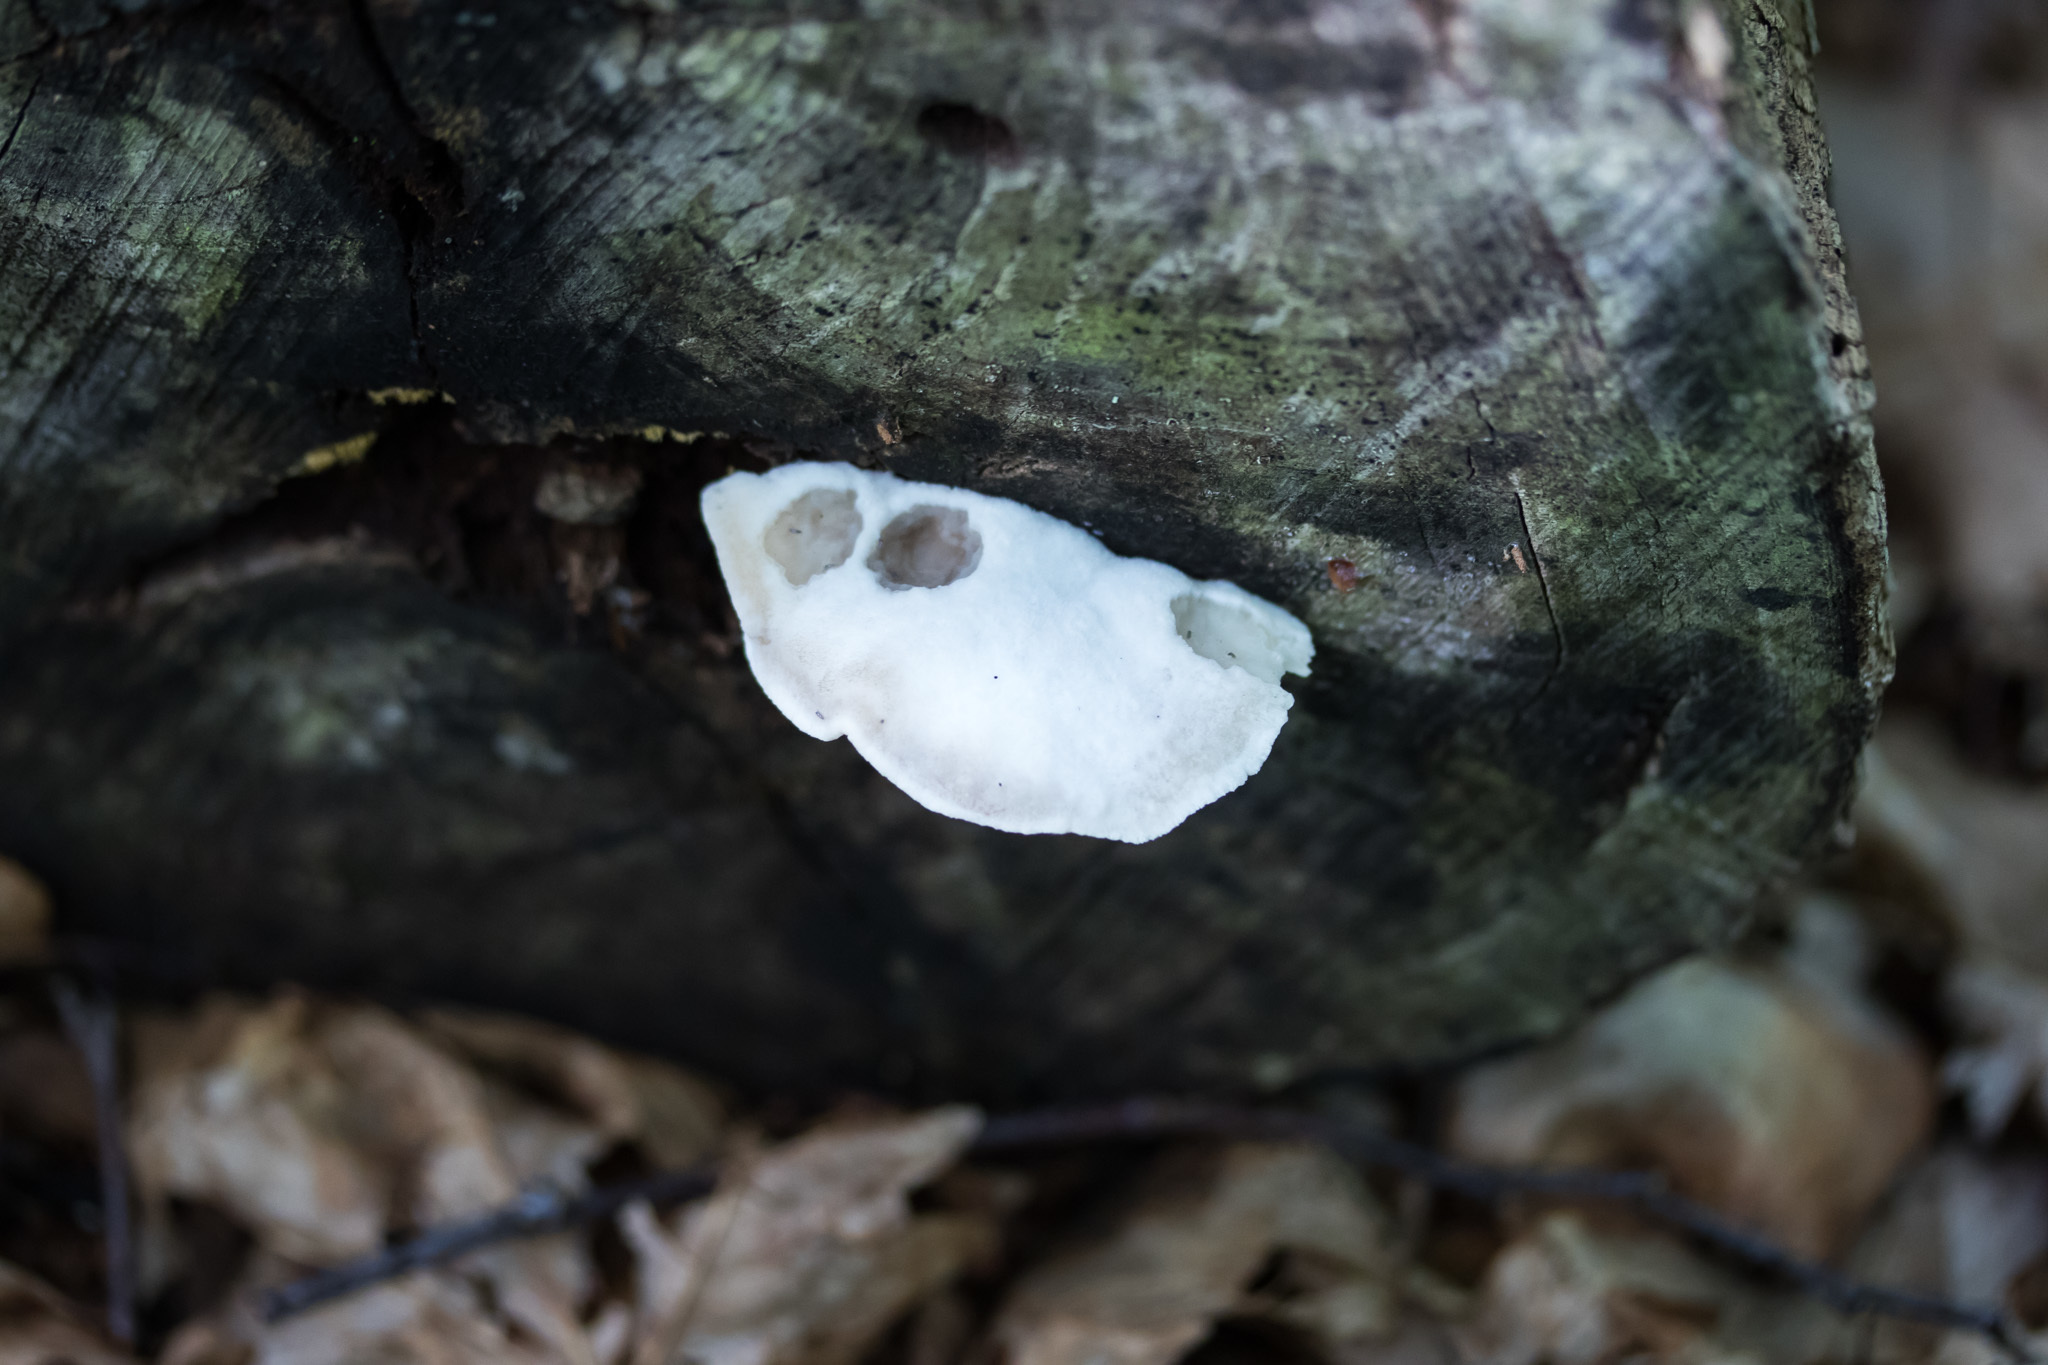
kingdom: Fungi
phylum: Basidiomycota
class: Agaricomycetes
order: Polyporales
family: Incrustoporiaceae
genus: Tyromyces
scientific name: Tyromyces chioneus
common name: White cheese polypore
